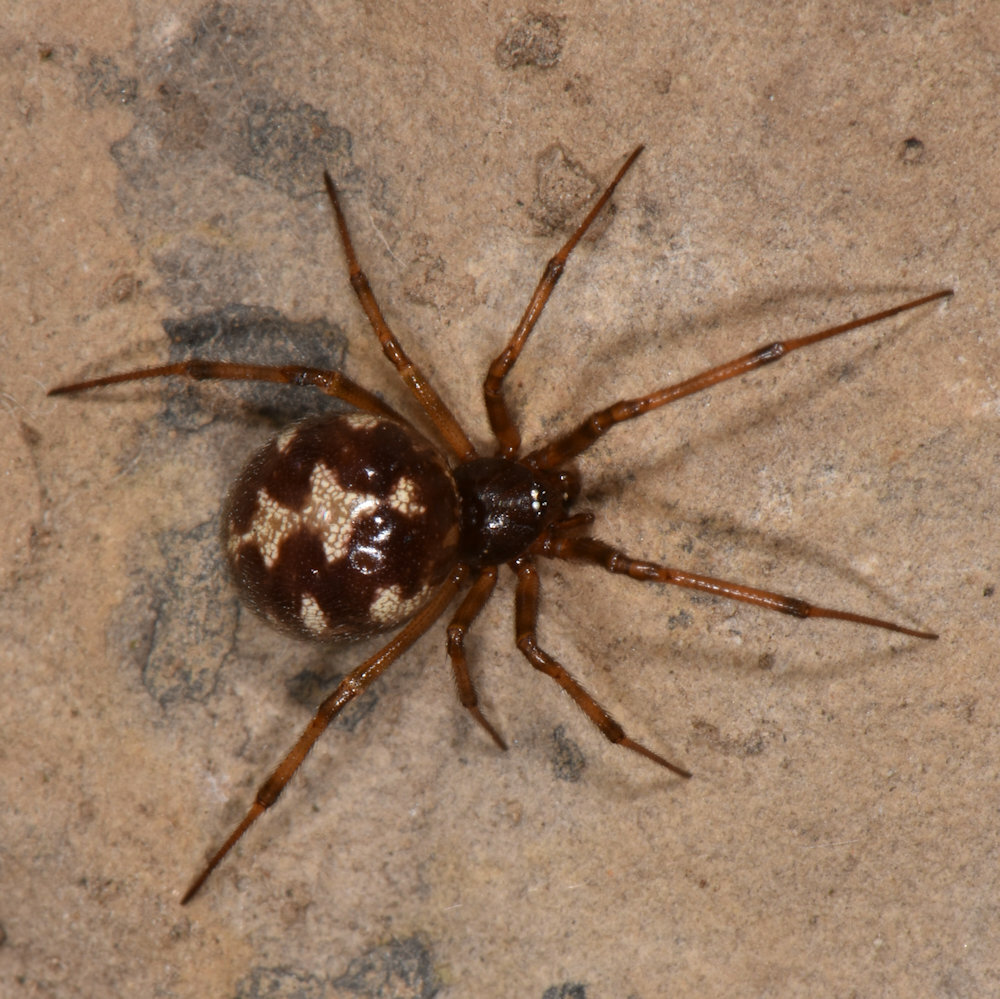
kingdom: Animalia
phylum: Arthropoda
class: Arachnida
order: Araneae
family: Theridiidae
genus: Steatoda
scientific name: Steatoda triangulosa
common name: Triangulate bud spider
